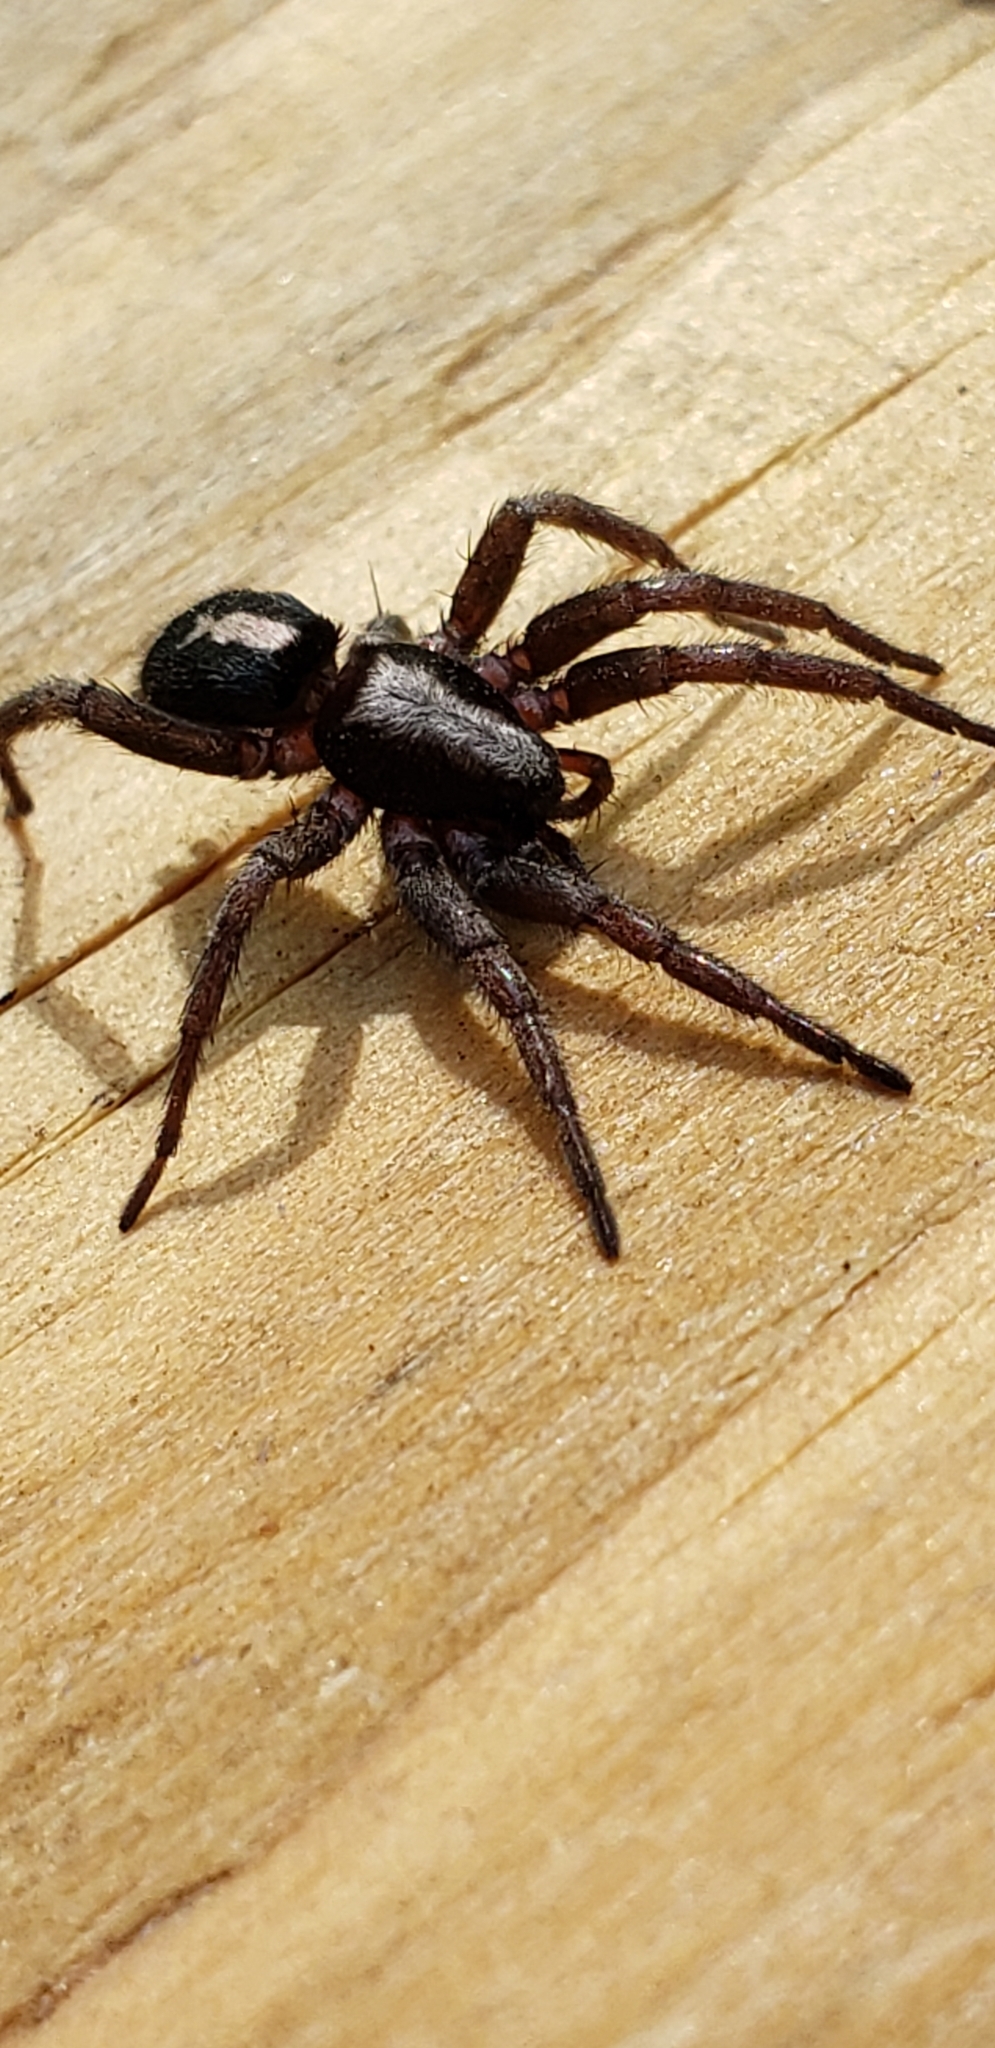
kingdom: Animalia
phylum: Arthropoda
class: Arachnida
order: Araneae
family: Gnaphosidae
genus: Herpyllus
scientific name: Herpyllus ecclesiasticus
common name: Eastern parson spider
